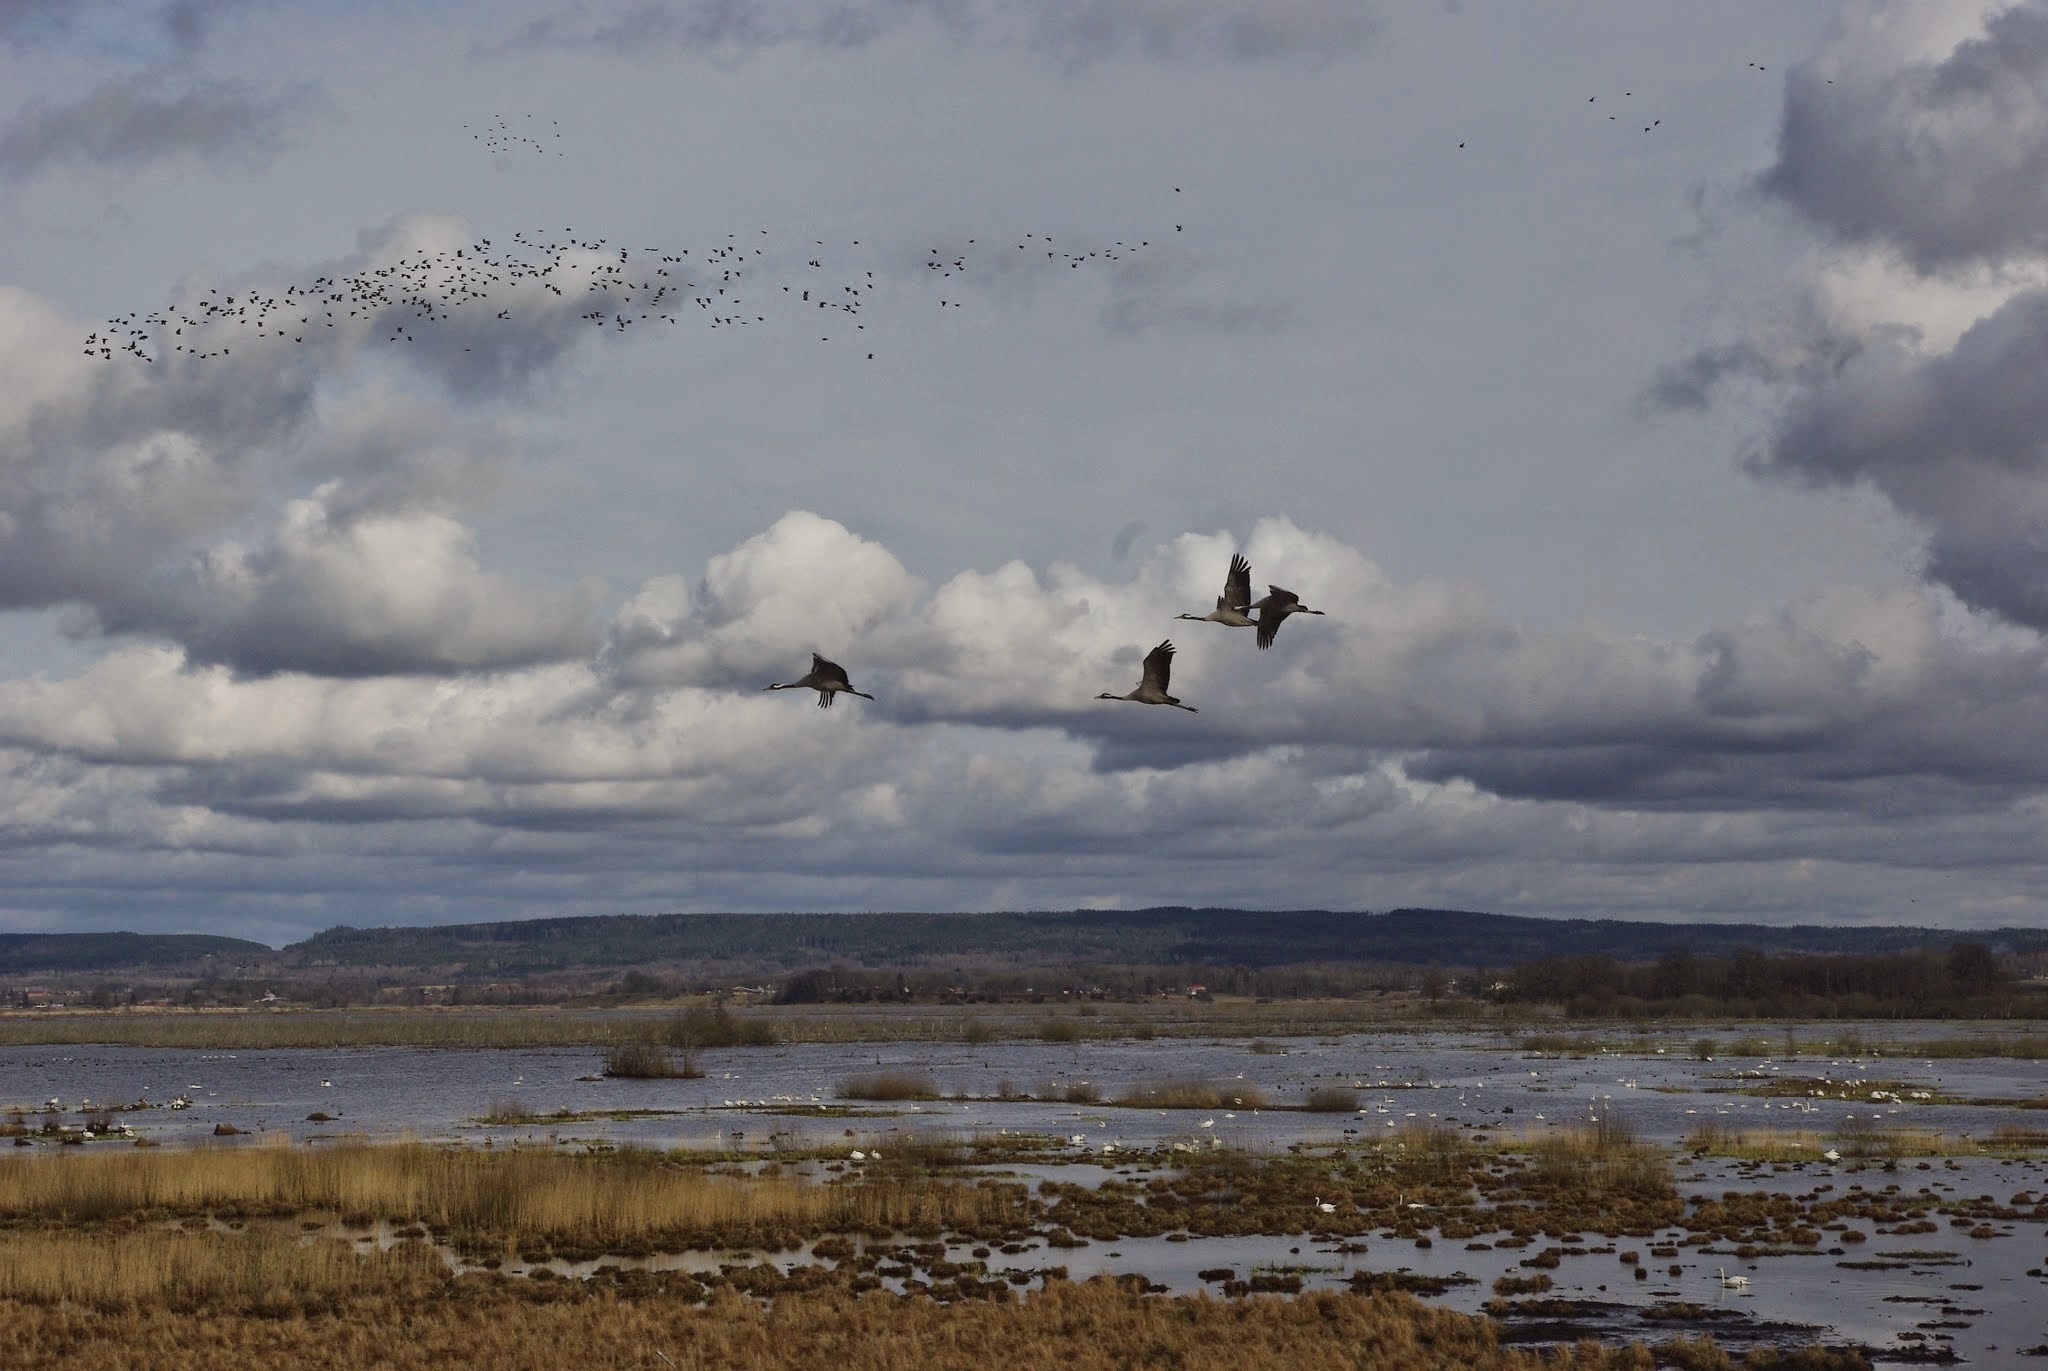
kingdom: Animalia
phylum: Chordata
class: Aves
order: Gruiformes
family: Gruidae
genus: Grus
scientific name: Grus grus
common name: Common crane
